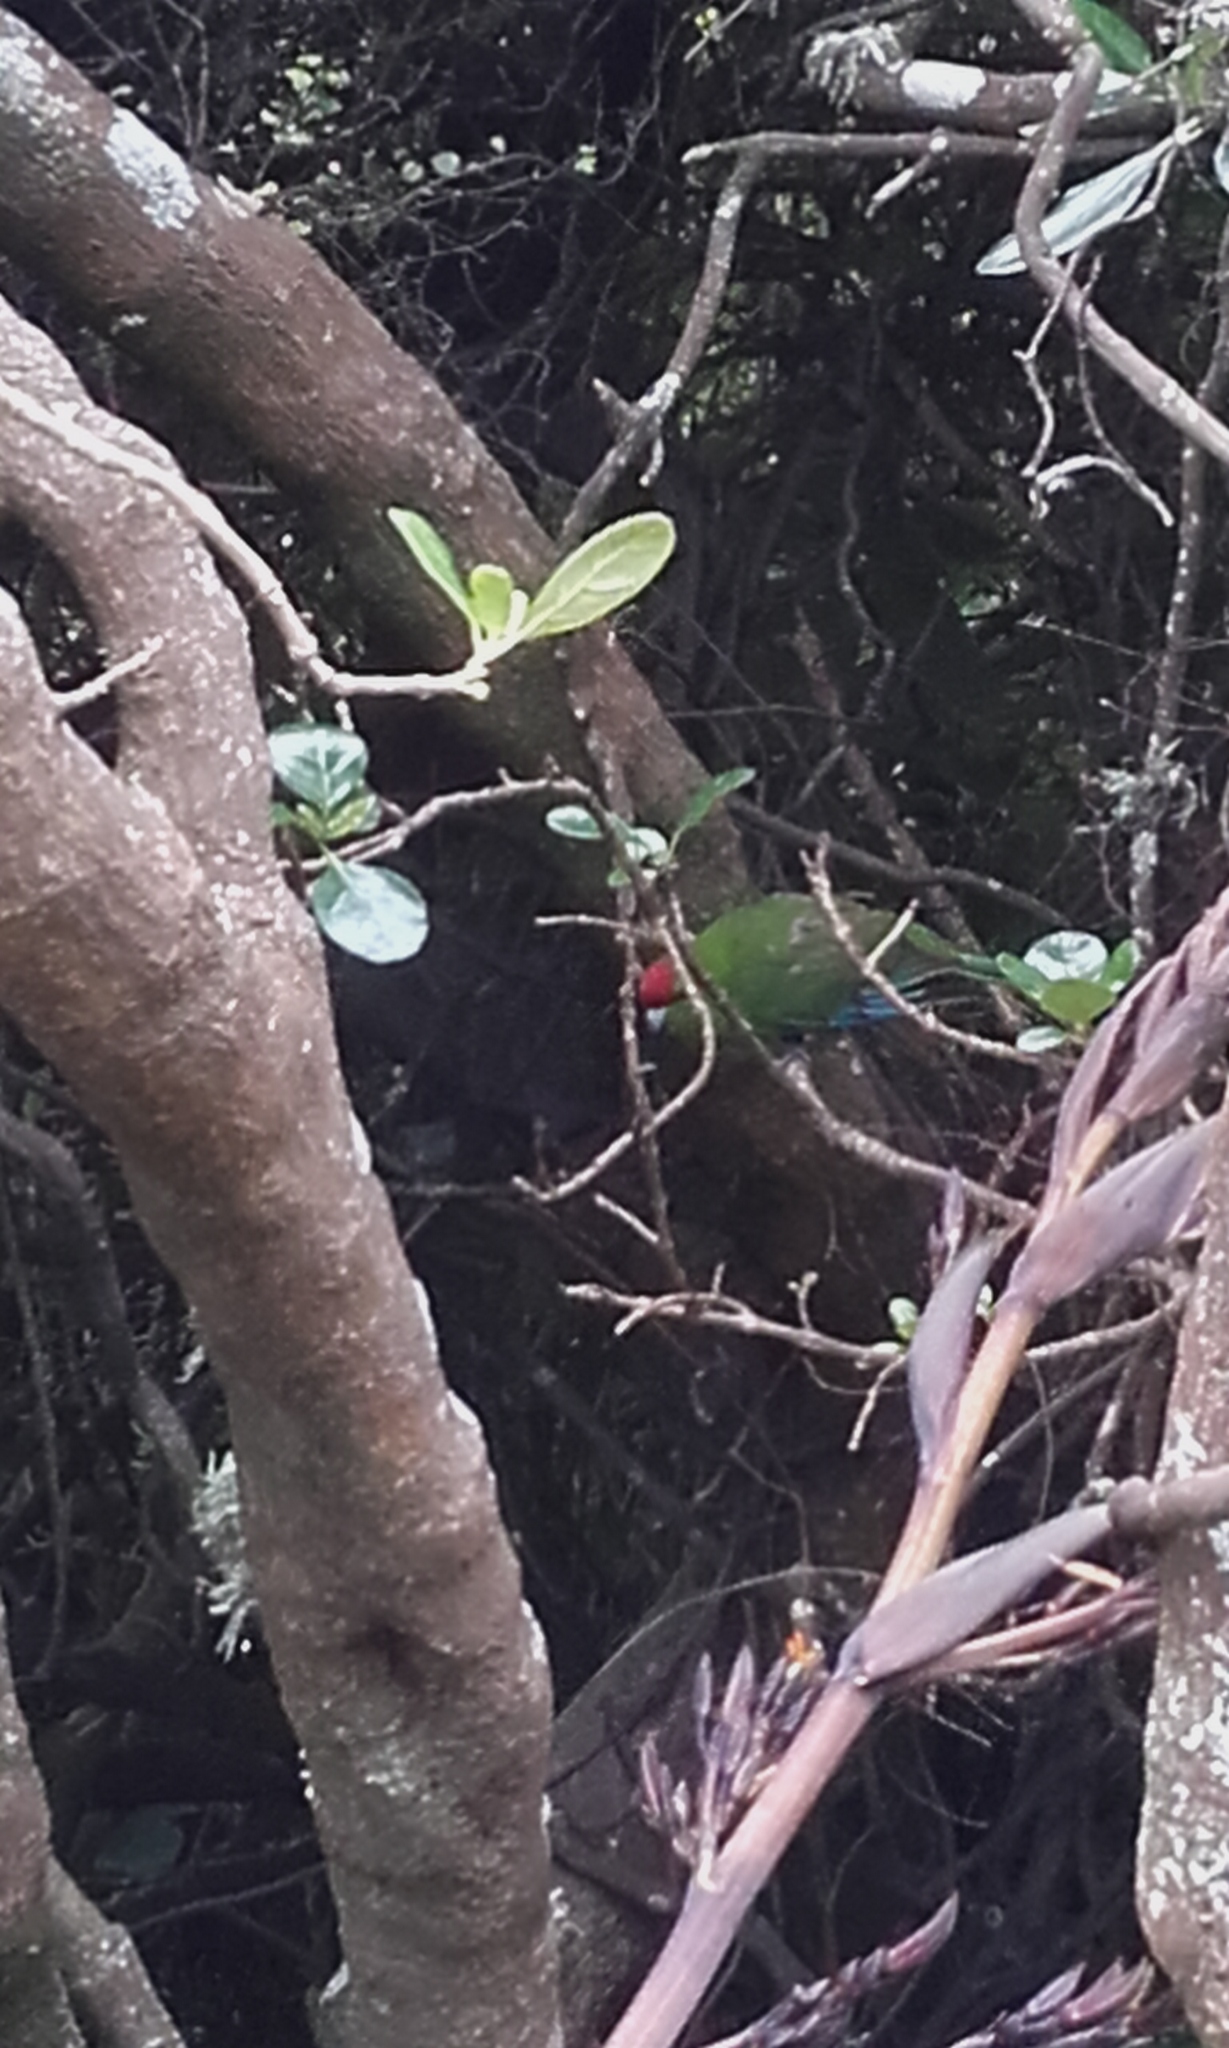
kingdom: Animalia
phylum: Chordata
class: Aves
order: Psittaciformes
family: Psittacidae
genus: Cyanoramphus
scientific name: Cyanoramphus novaezelandiae
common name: Red-fronted parakeet
